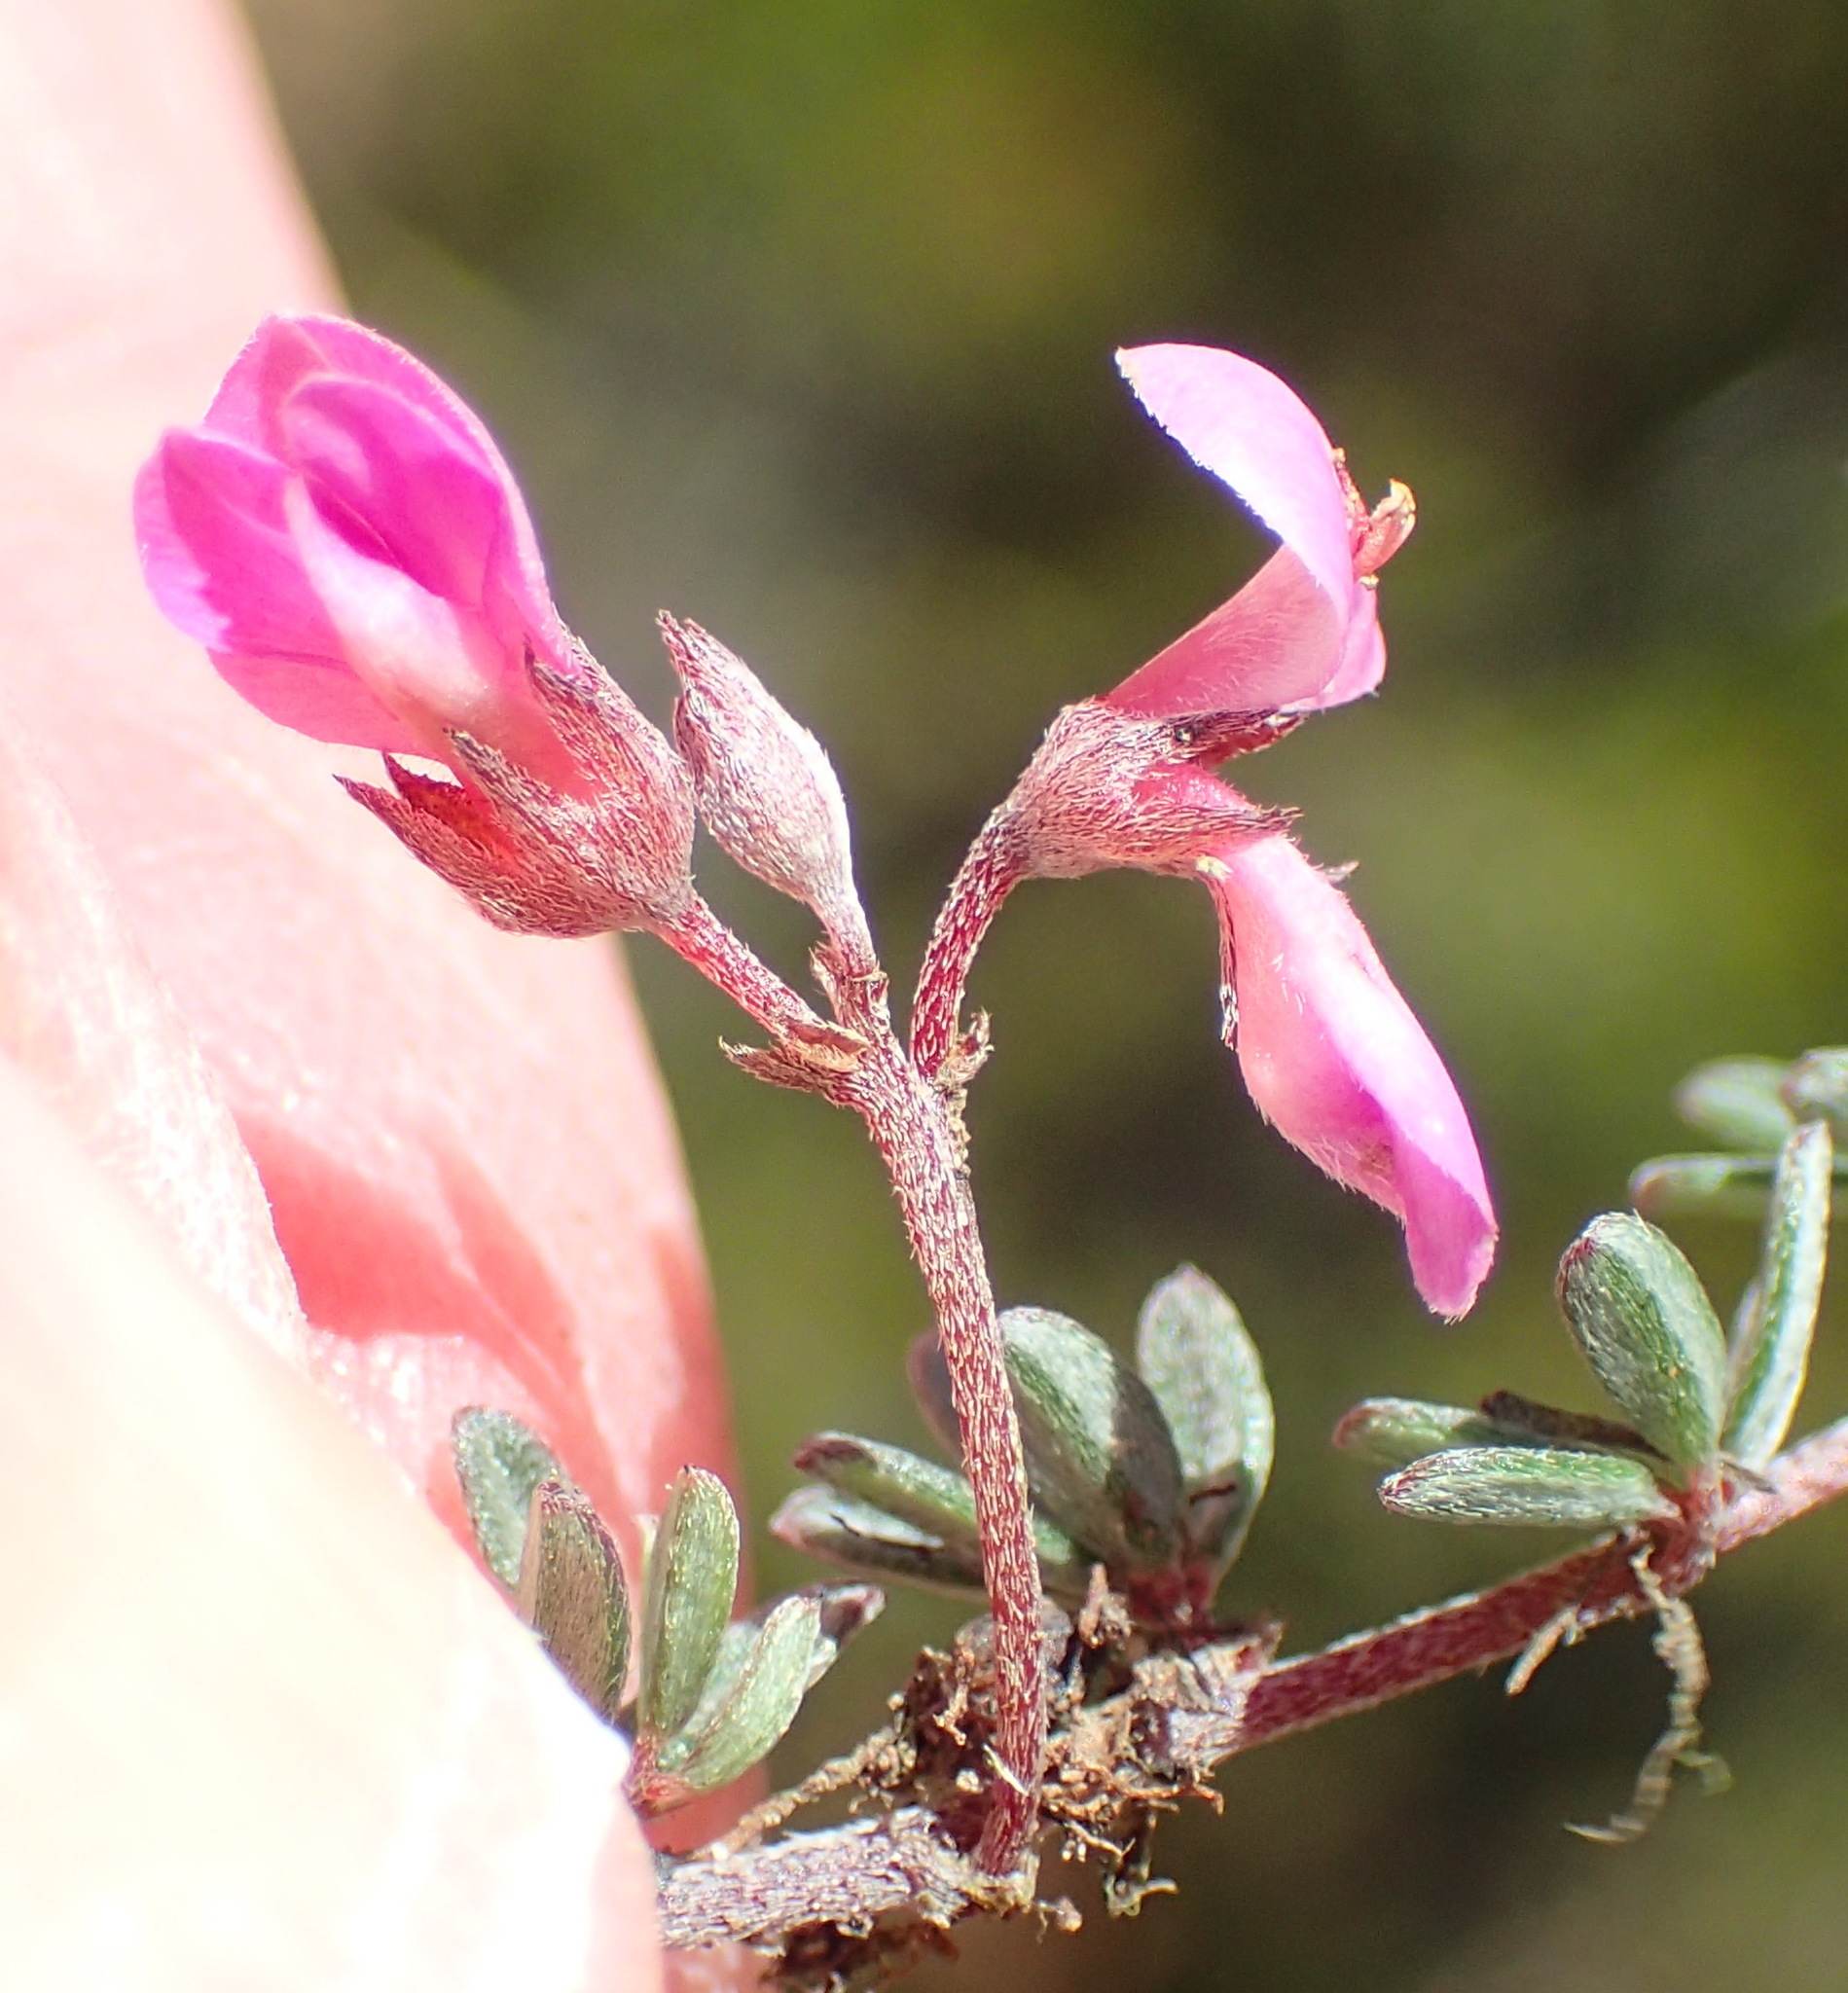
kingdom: Plantae
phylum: Tracheophyta
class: Magnoliopsida
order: Fabales
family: Fabaceae
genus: Indigofera
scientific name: Indigofera
